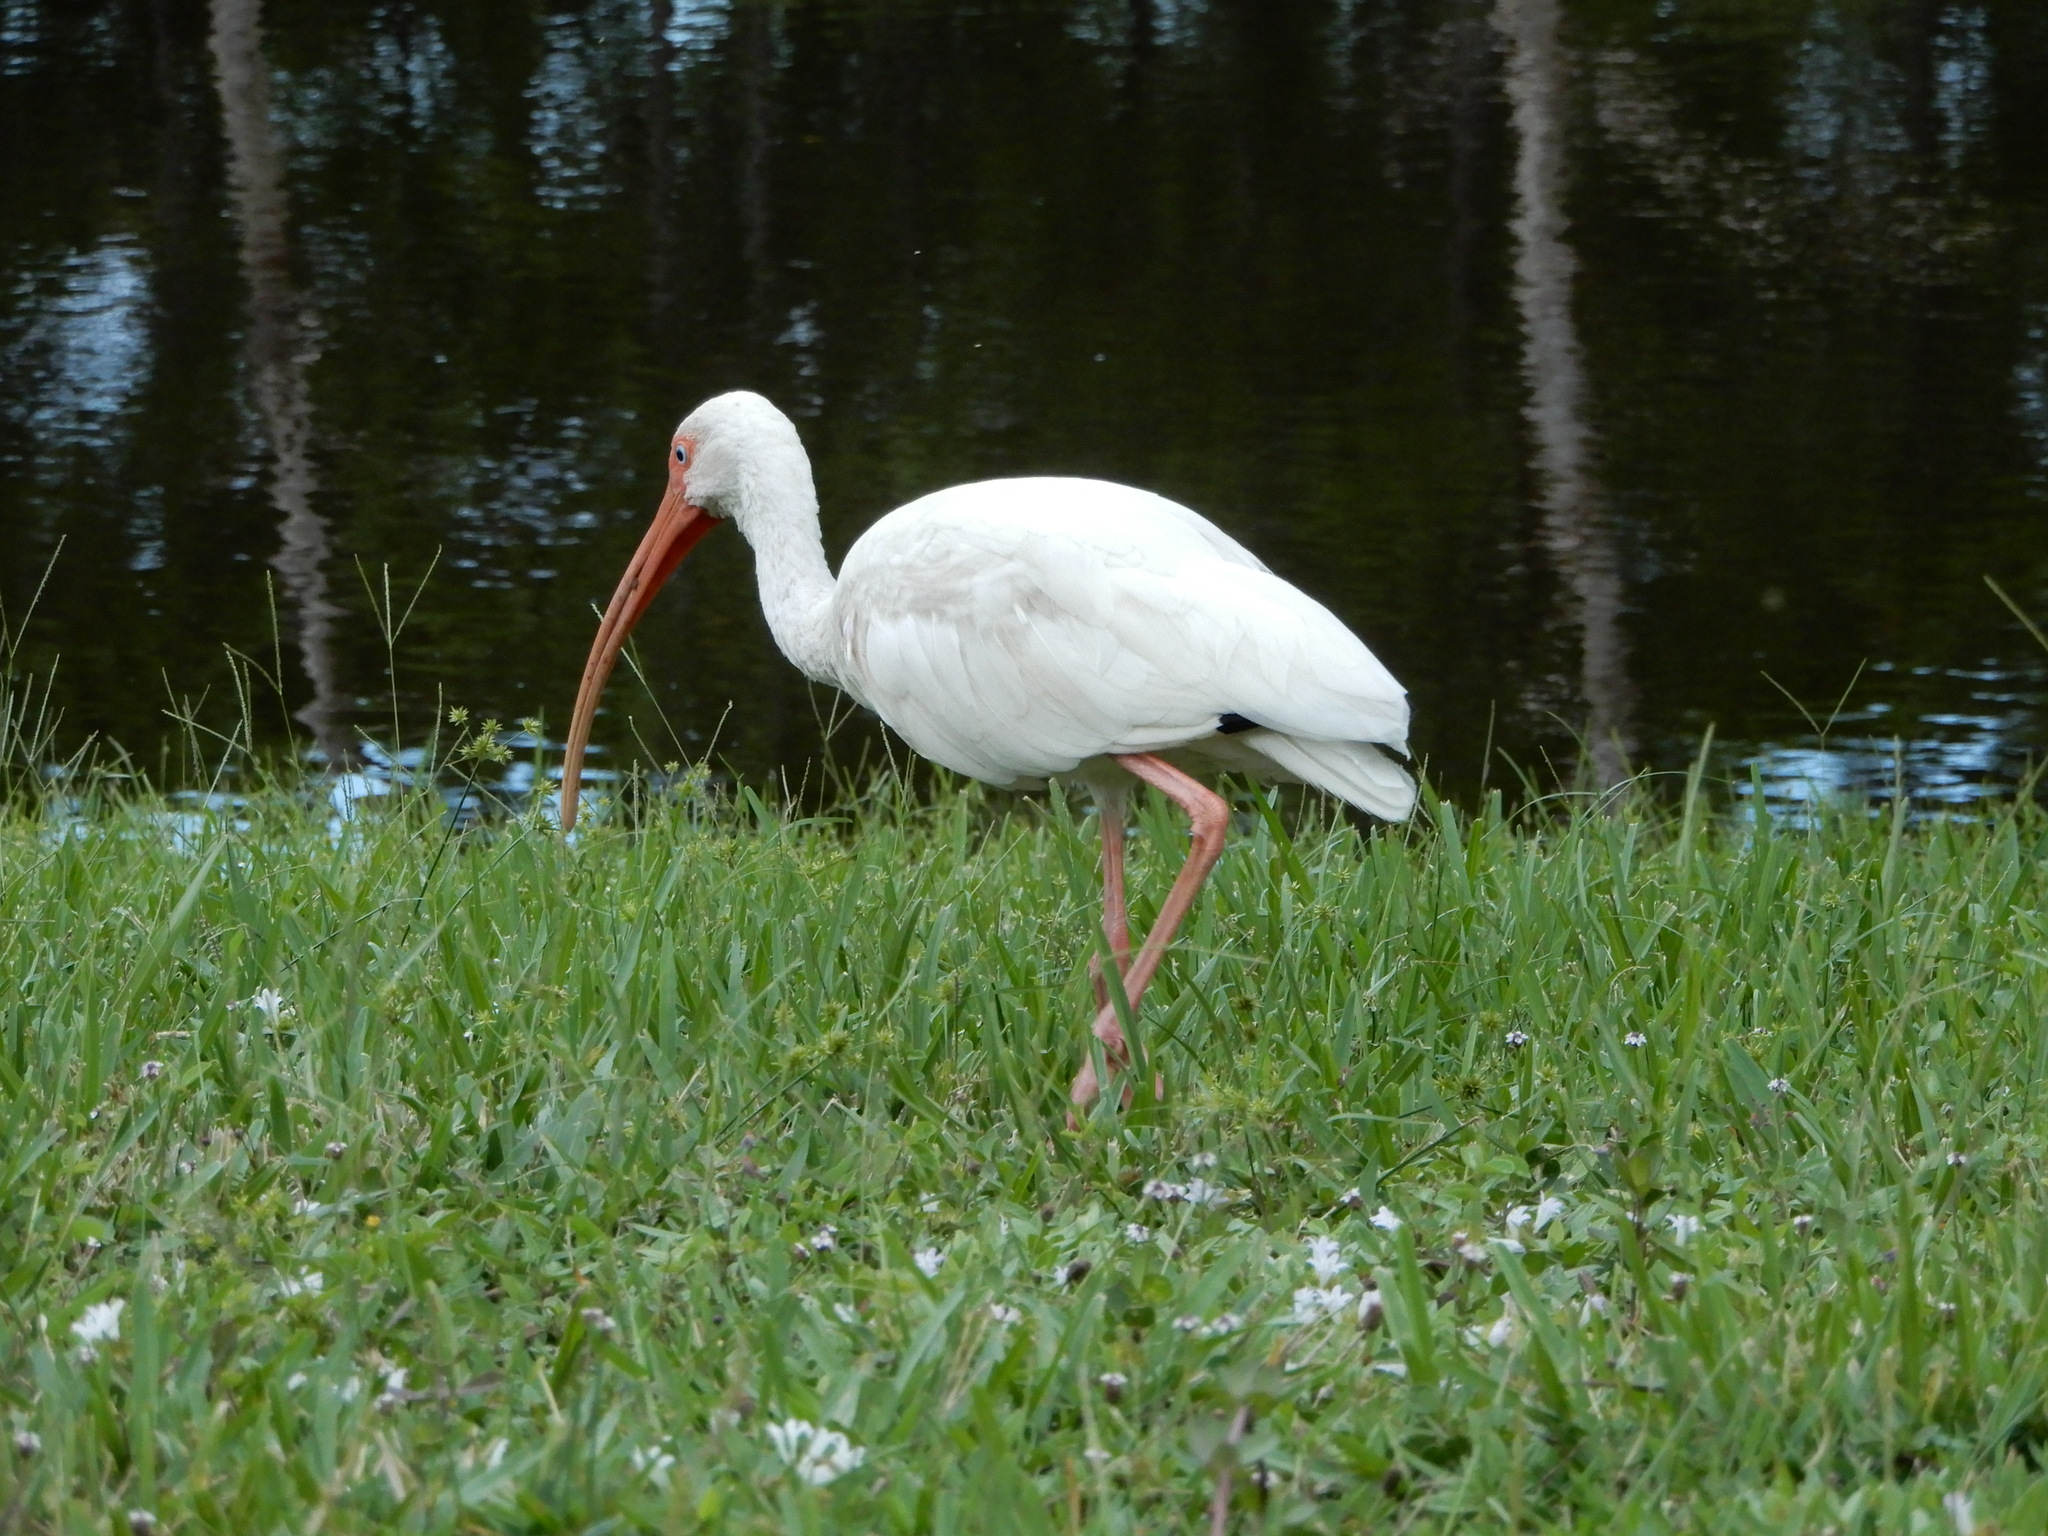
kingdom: Animalia
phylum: Chordata
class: Aves
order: Pelecaniformes
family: Threskiornithidae
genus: Eudocimus
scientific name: Eudocimus albus
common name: White ibis
